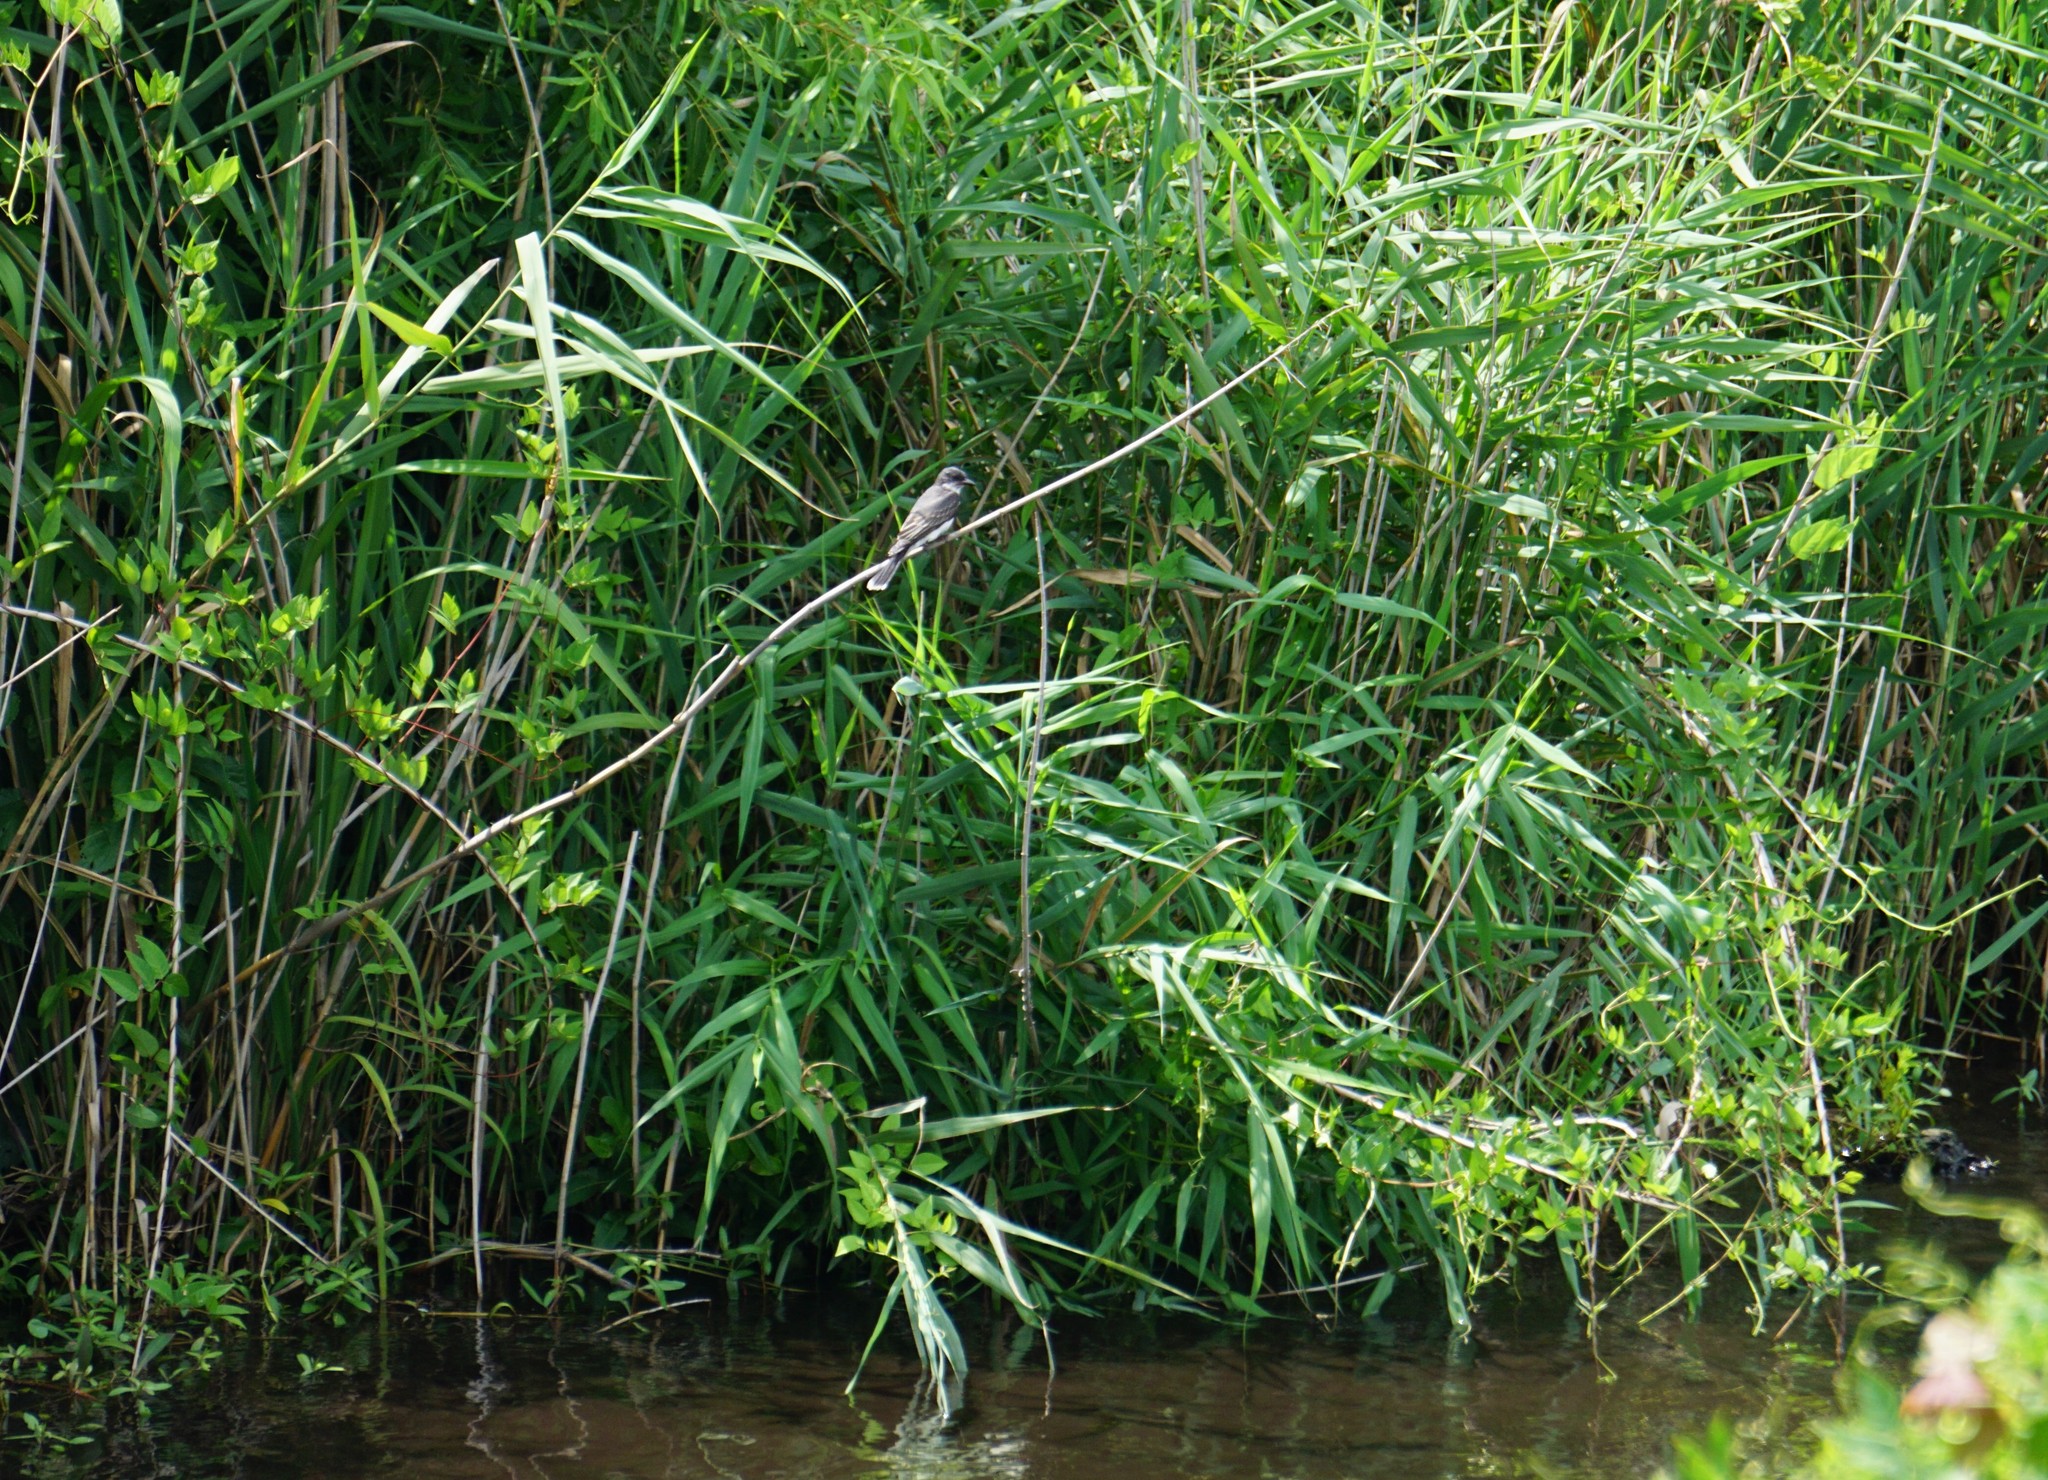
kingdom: Animalia
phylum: Chordata
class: Aves
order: Passeriformes
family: Tyrannidae
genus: Tyrannus
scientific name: Tyrannus tyrannus
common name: Eastern kingbird
